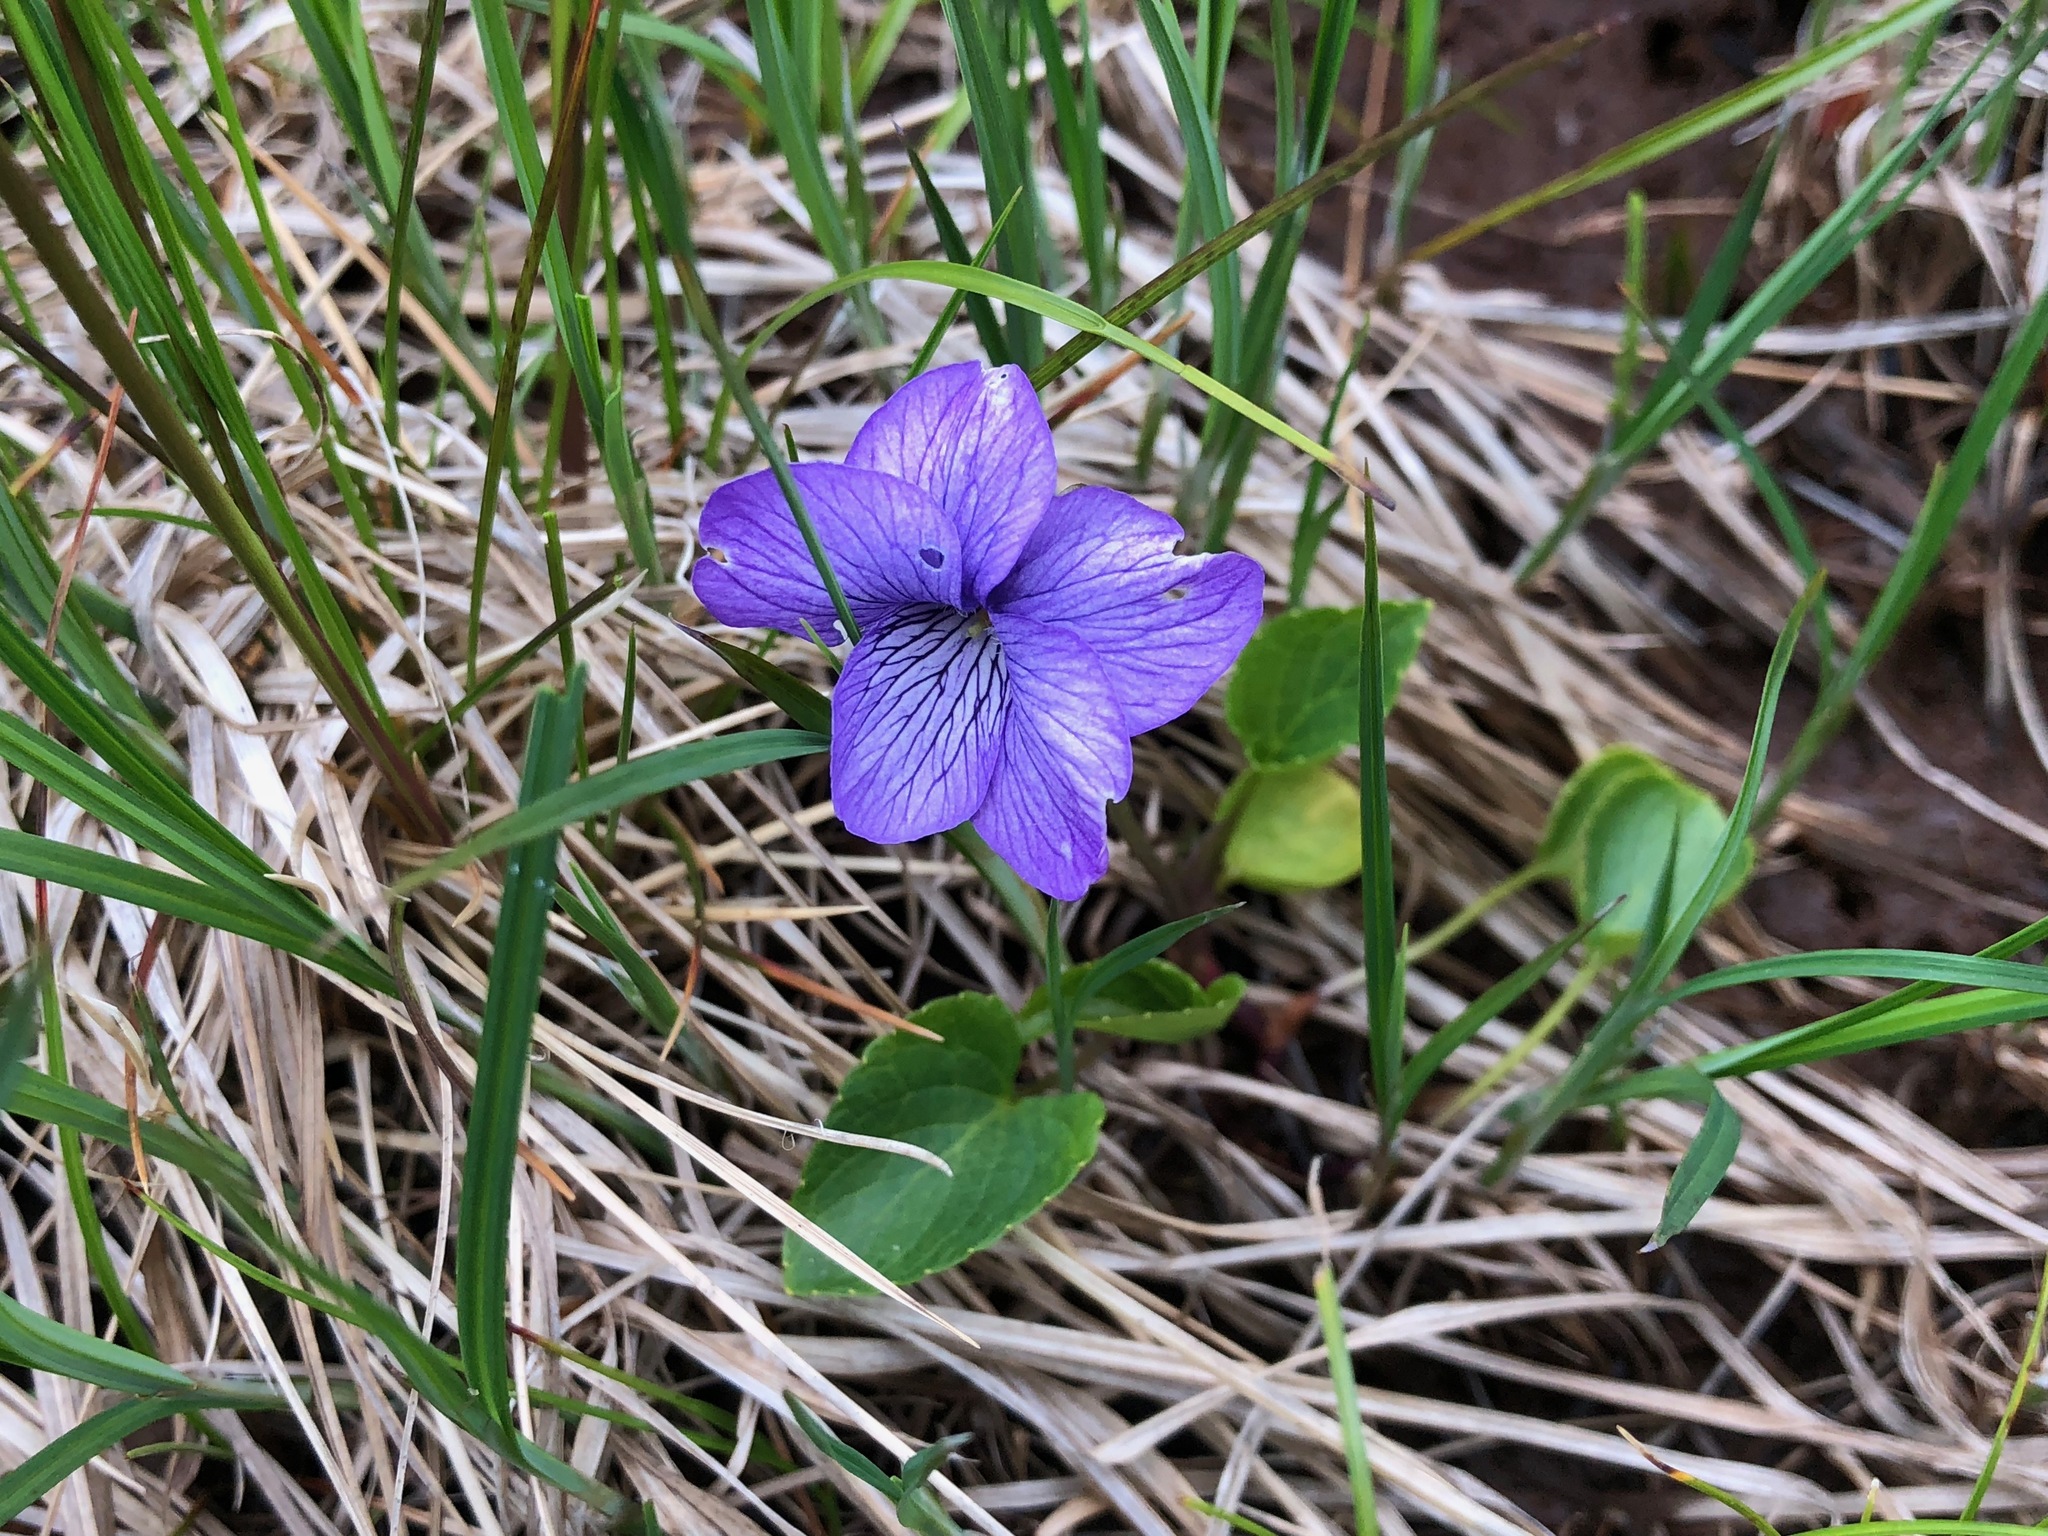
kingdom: Plantae
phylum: Tracheophyta
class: Magnoliopsida
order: Malpighiales
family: Violaceae
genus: Viola
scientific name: Viola langsdorffii
